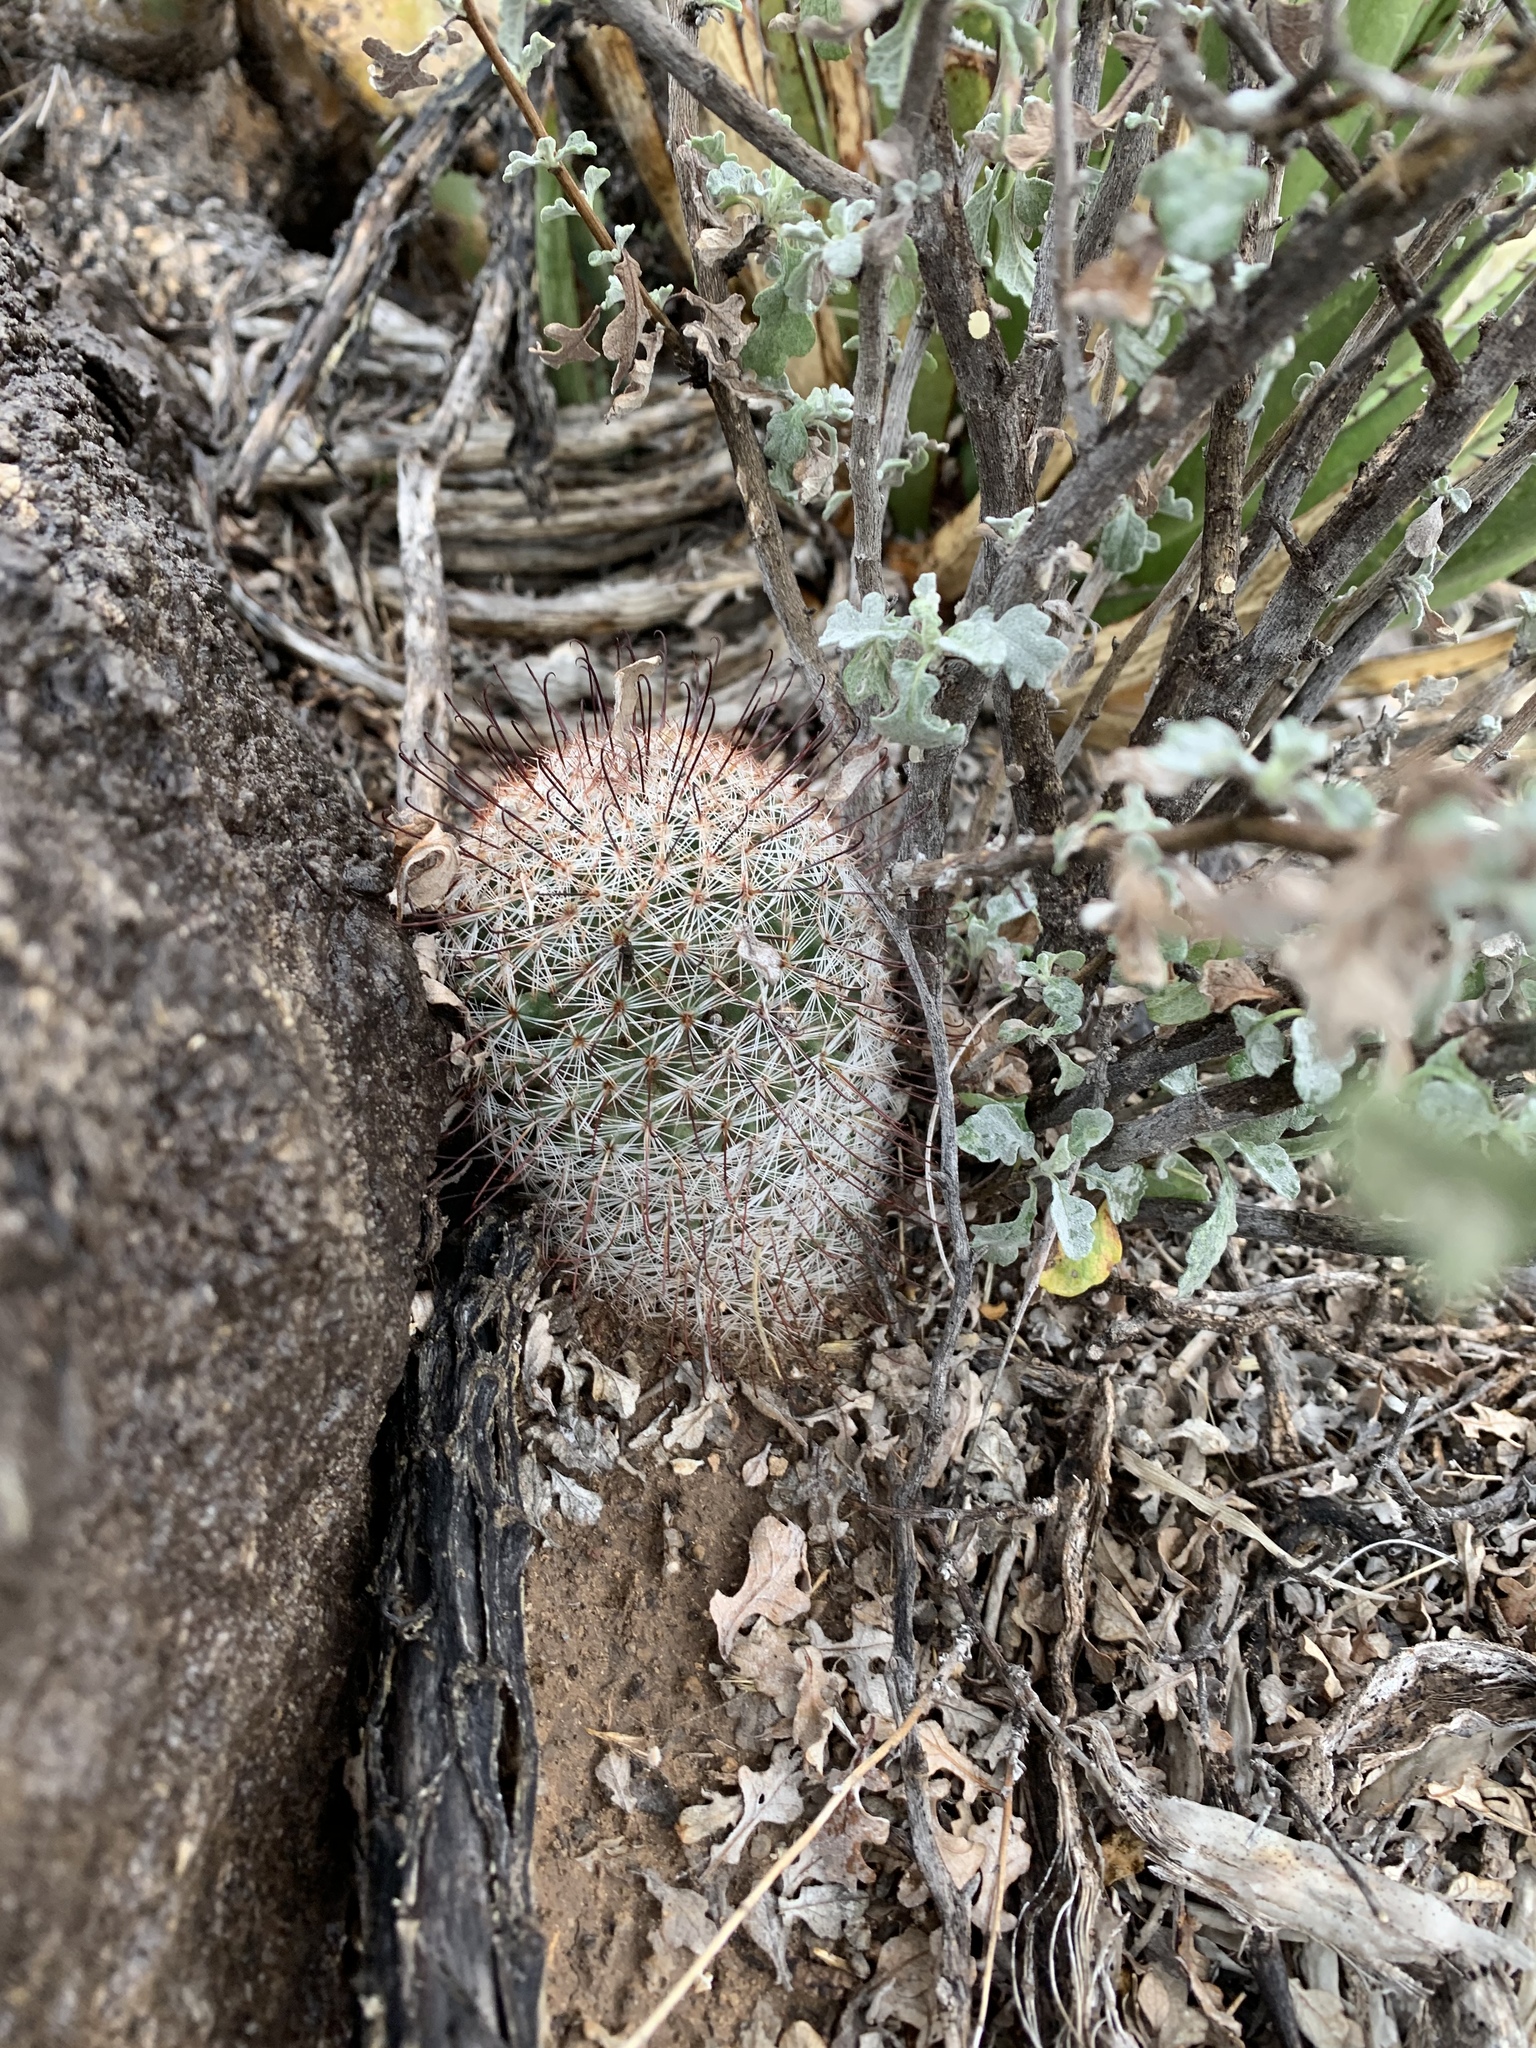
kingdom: Plantae
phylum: Tracheophyta
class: Magnoliopsida
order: Caryophyllales
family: Cactaceae
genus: Cochemiea
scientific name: Cochemiea grahamii
